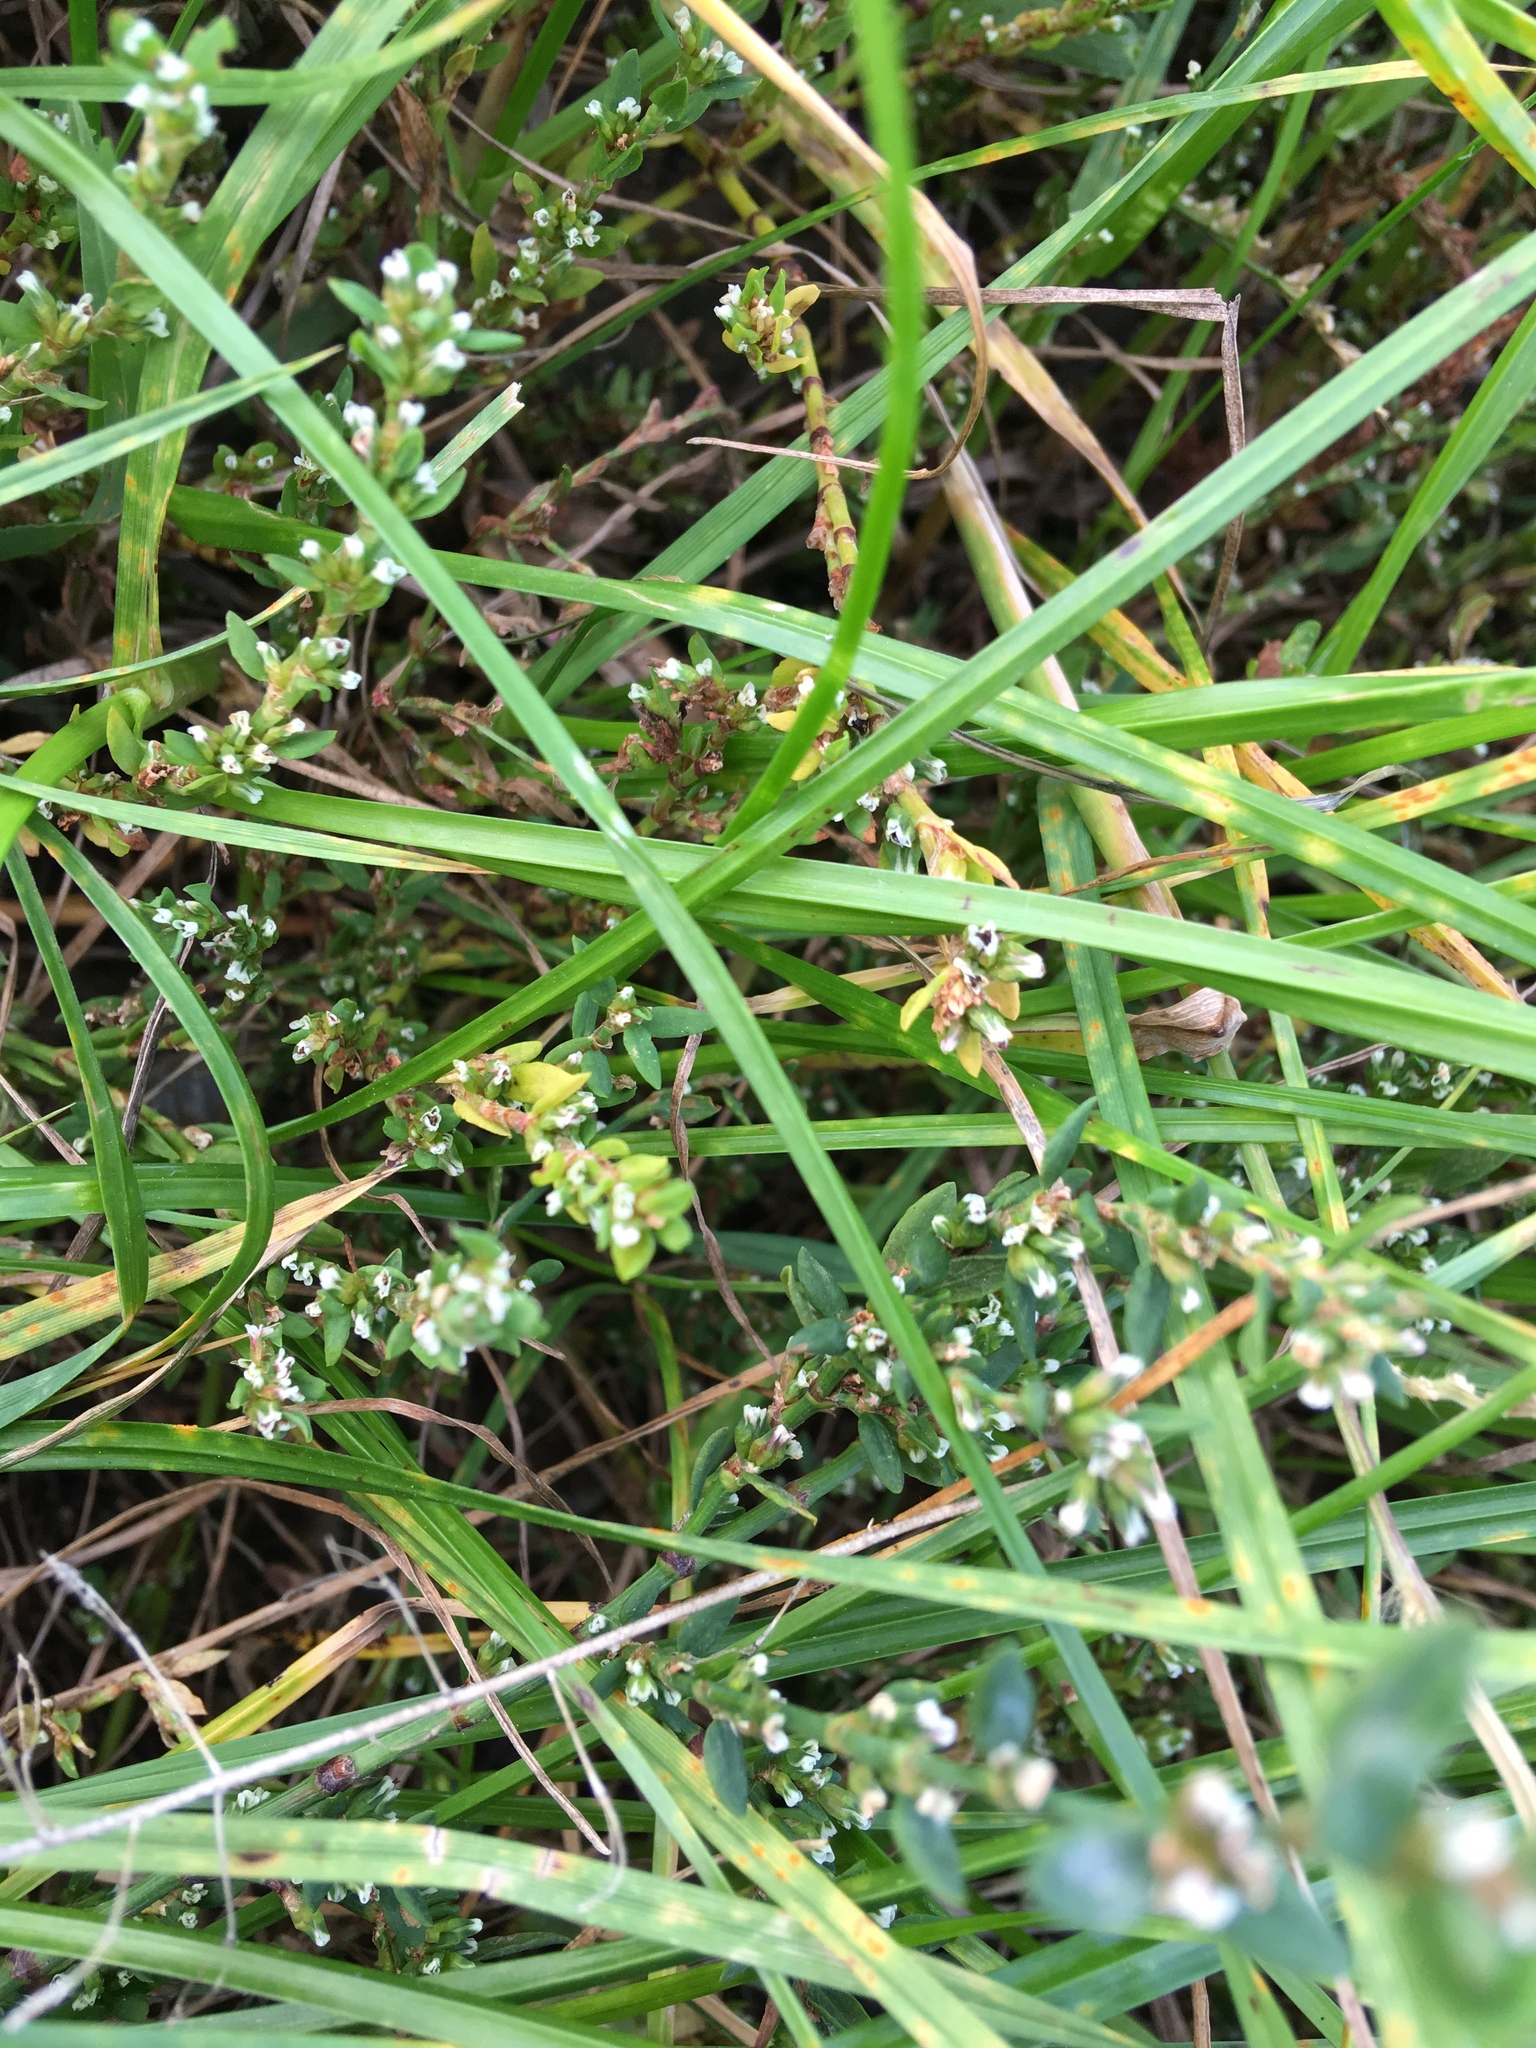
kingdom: Plantae
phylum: Tracheophyta
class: Magnoliopsida
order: Caryophyllales
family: Polygonaceae
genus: Polygonum
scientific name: Polygonum aviculare
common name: Prostrate knotweed
